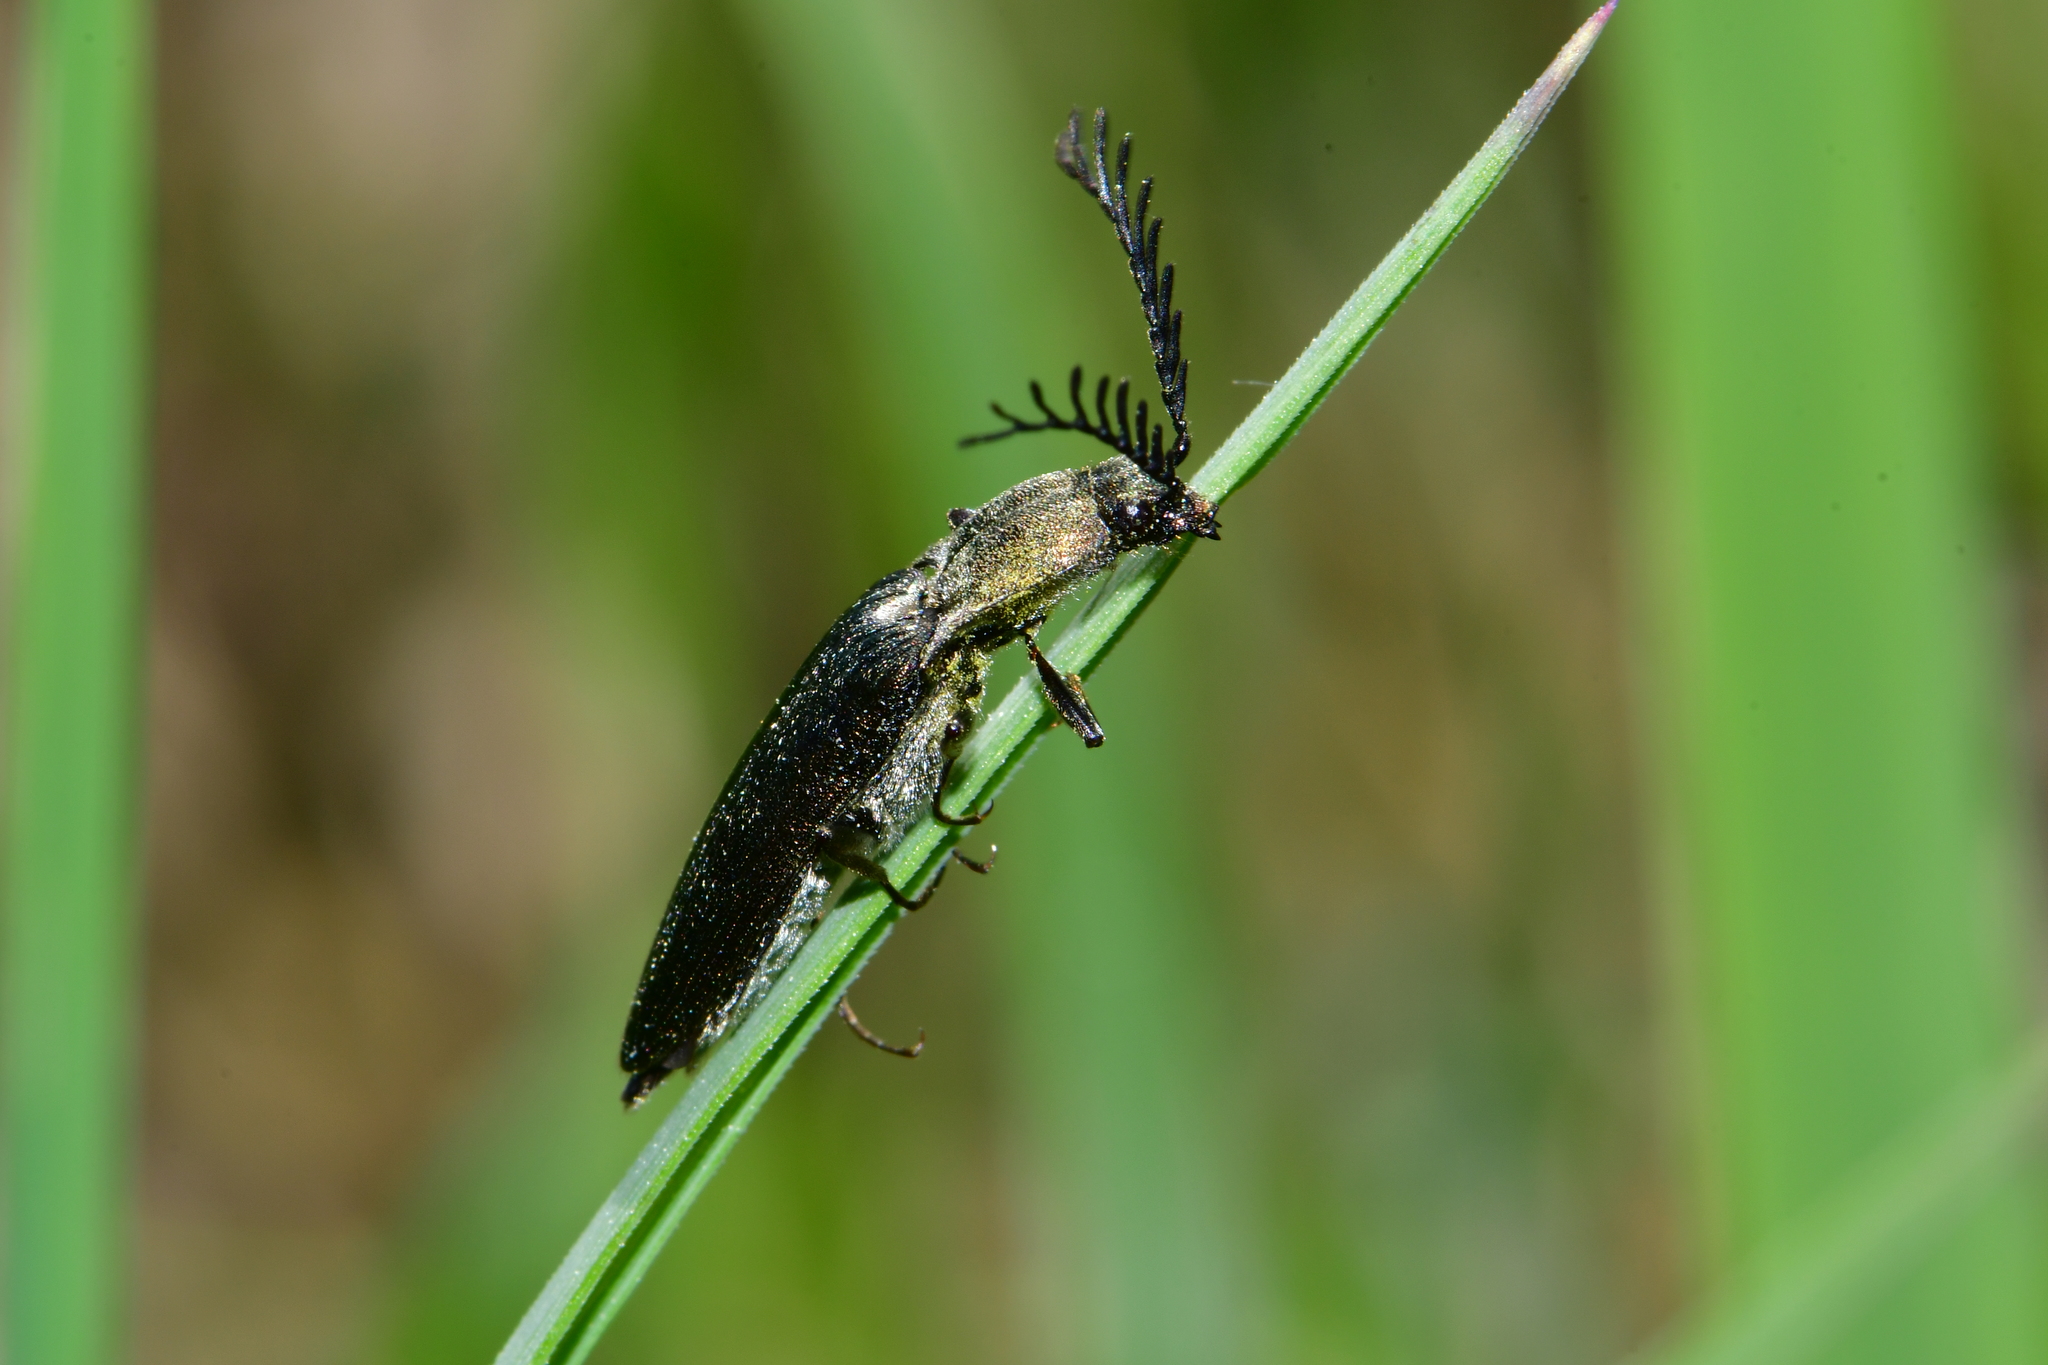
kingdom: Animalia
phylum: Arthropoda
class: Insecta
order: Coleoptera
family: Elateridae
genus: Ctenicera
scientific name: Ctenicera pectinicornis
